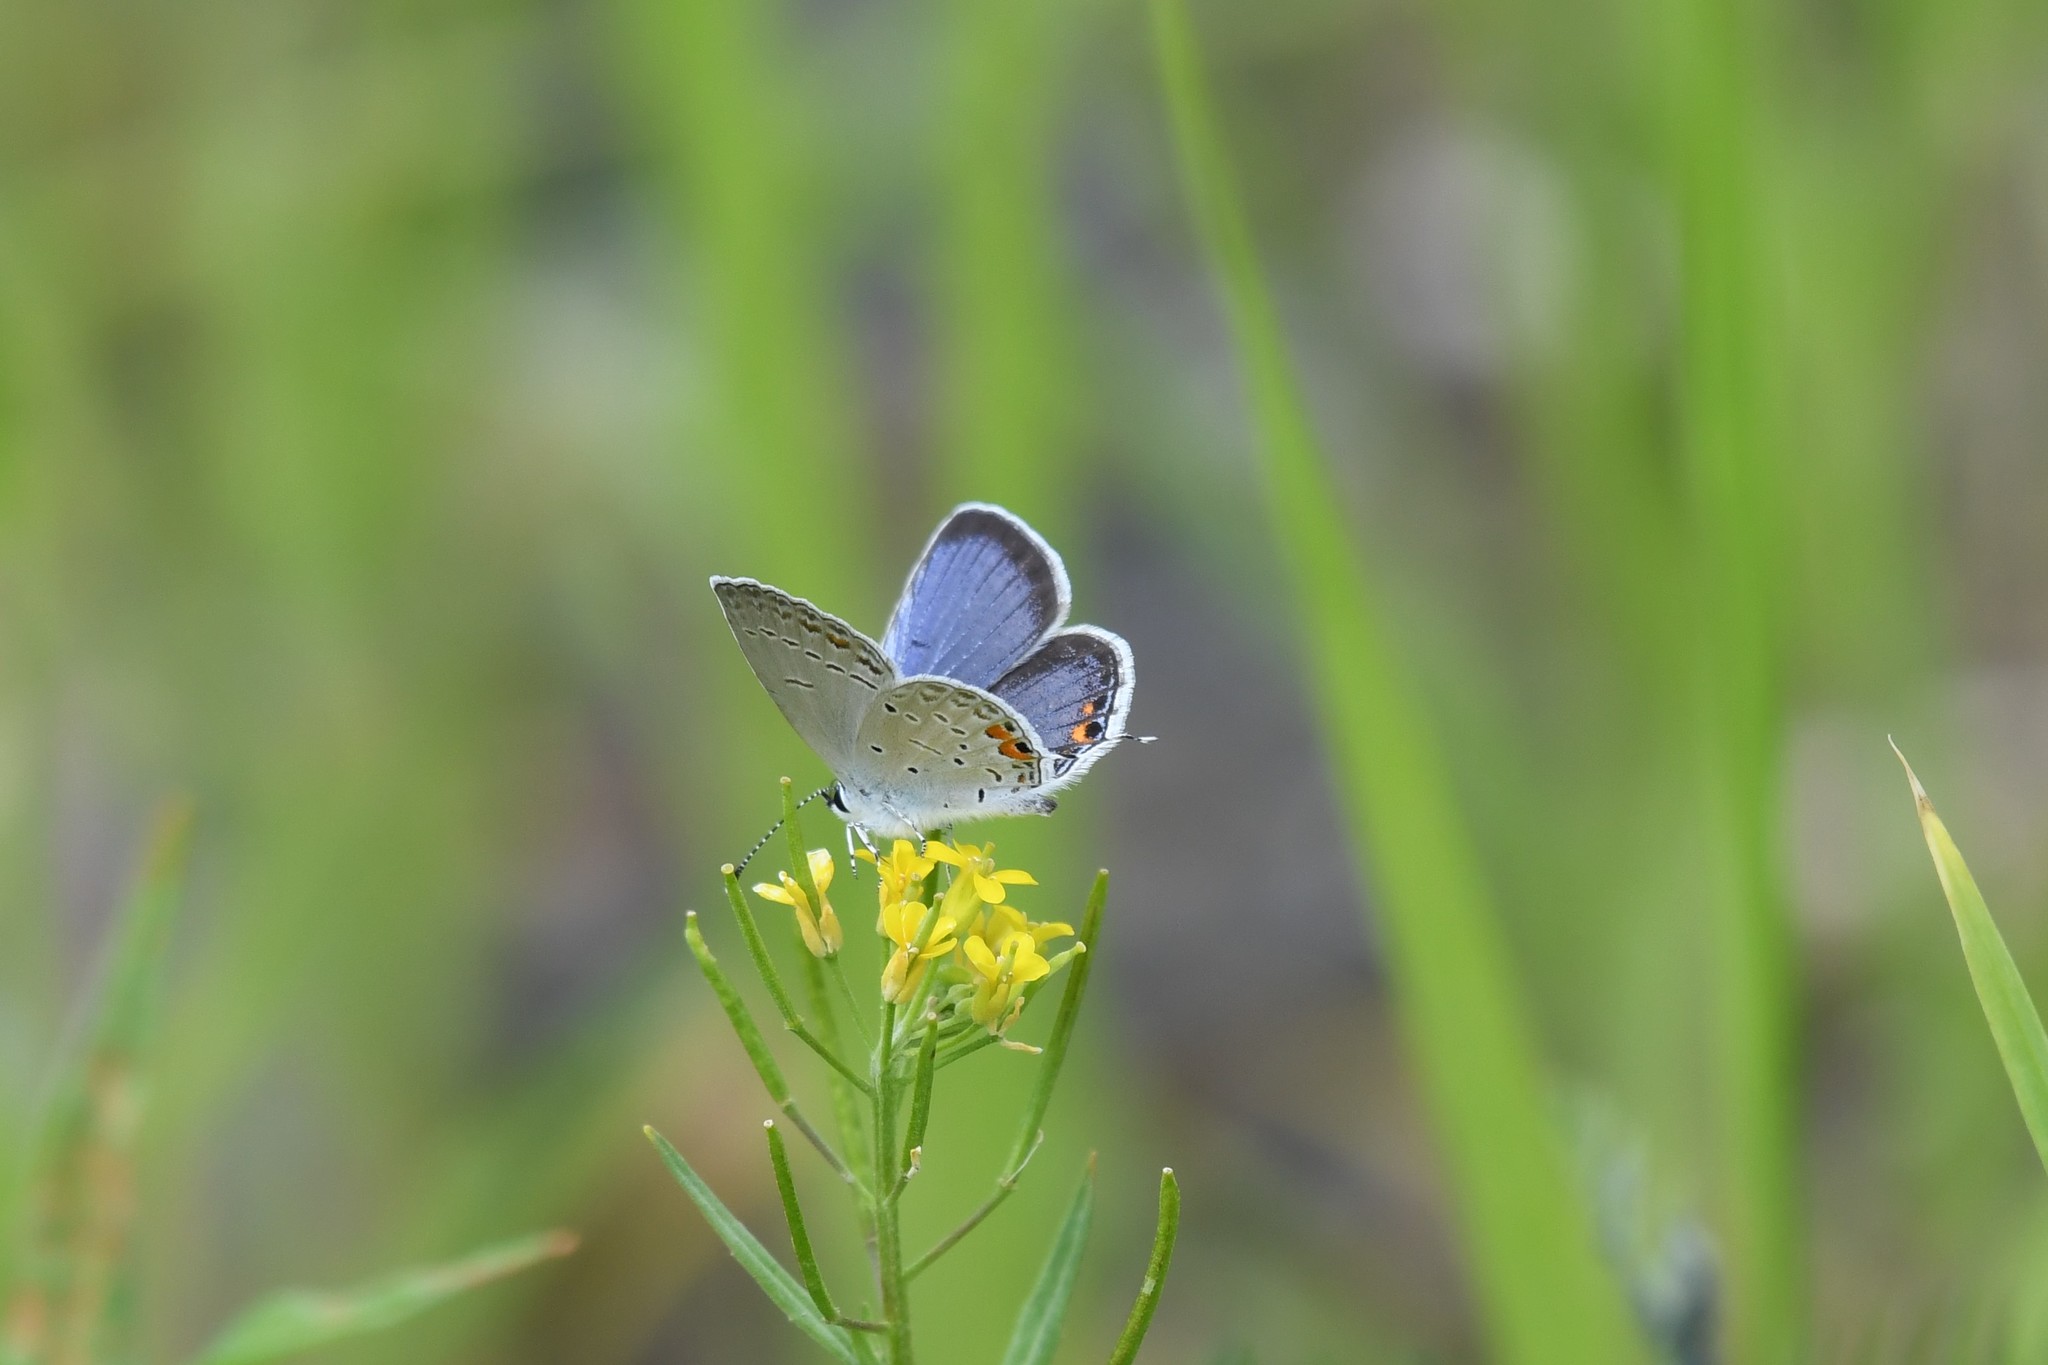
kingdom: Animalia
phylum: Arthropoda
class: Insecta
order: Lepidoptera
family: Lycaenidae
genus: Elkalyce
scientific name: Elkalyce comyntas
